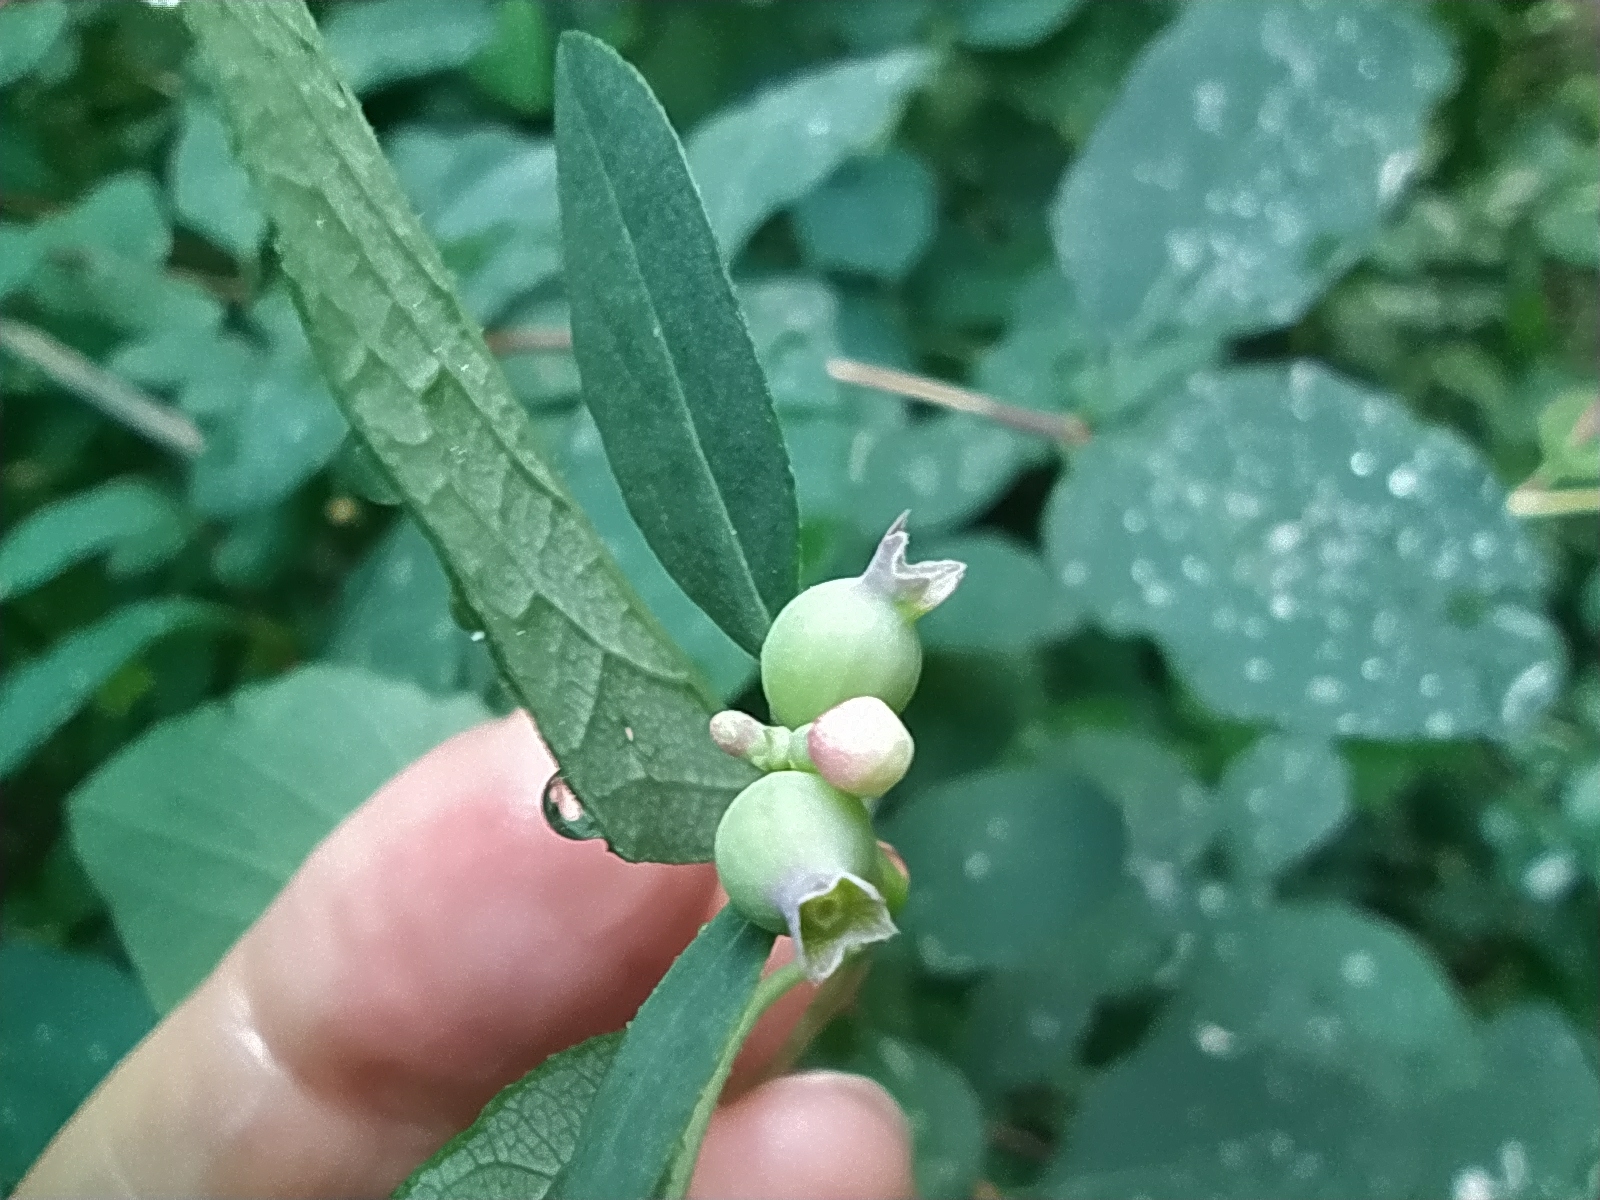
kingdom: Plantae
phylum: Tracheophyta
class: Magnoliopsida
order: Dipsacales
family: Caprifoliaceae
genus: Symphoricarpos
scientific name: Symphoricarpos albus
